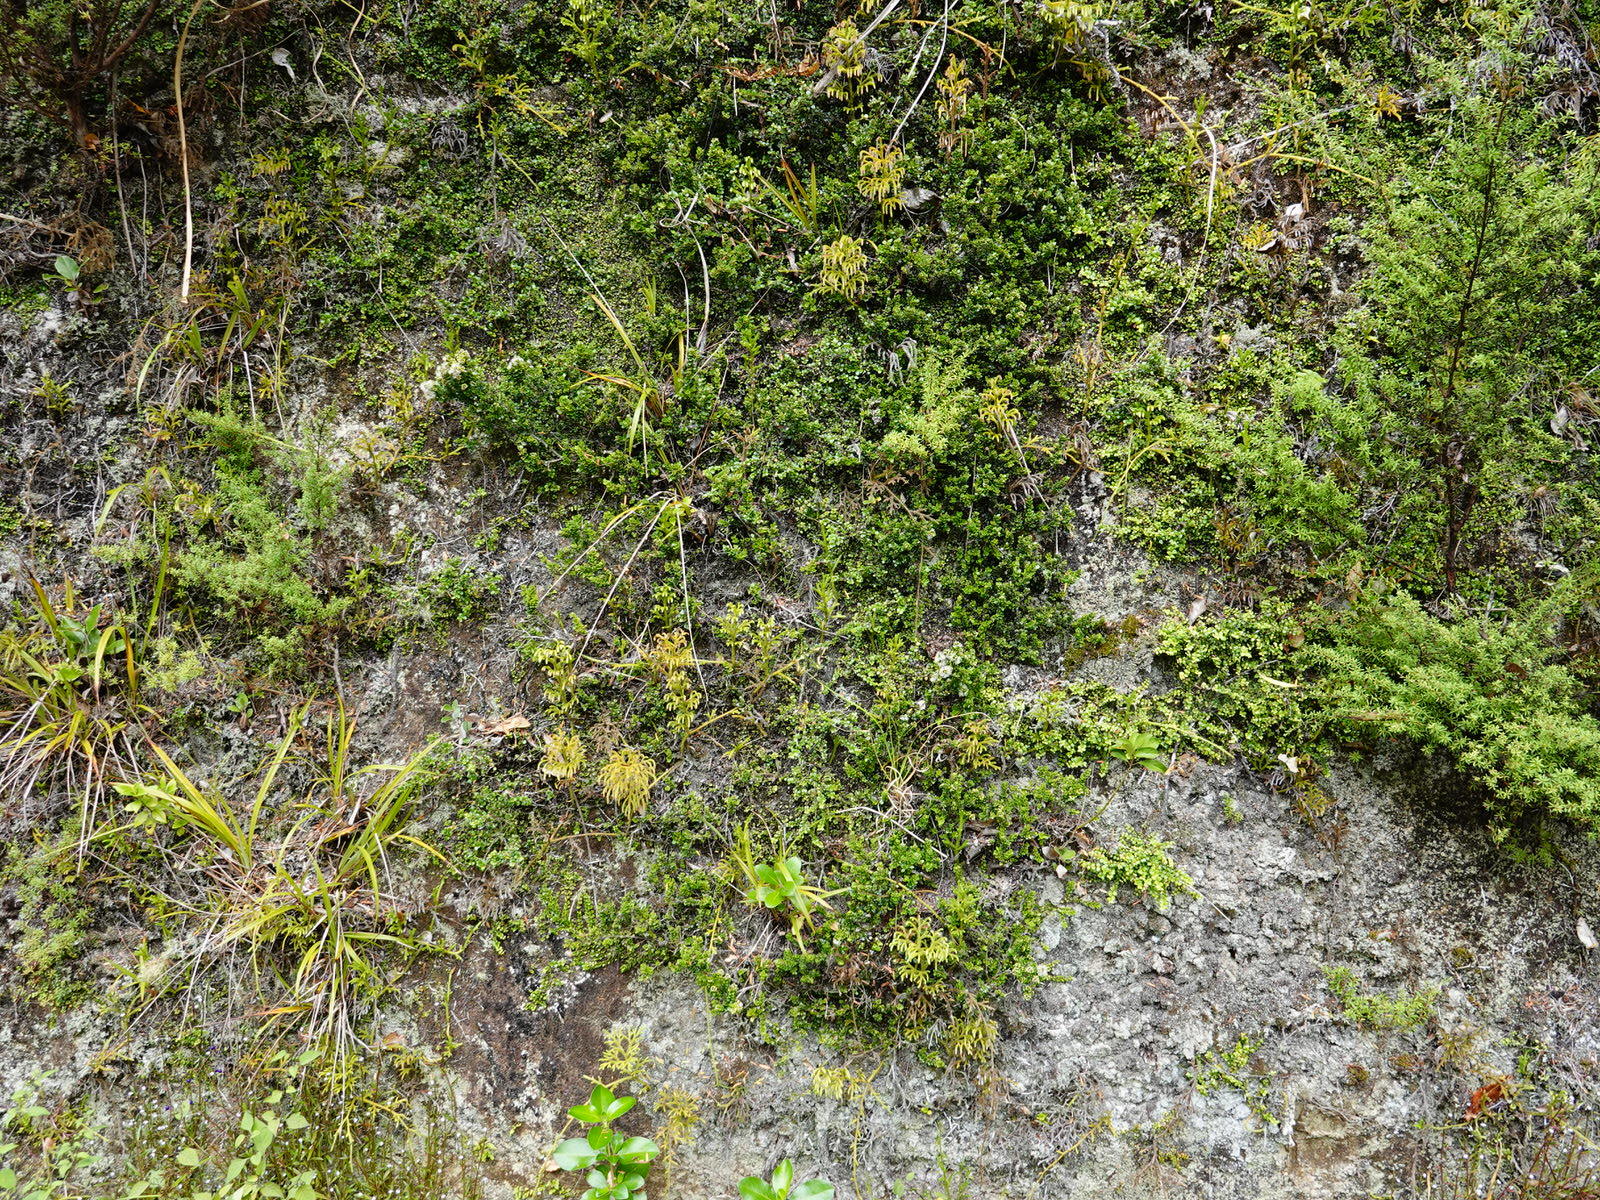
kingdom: Plantae
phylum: Tracheophyta
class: Magnoliopsida
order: Myrtales
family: Myrtaceae
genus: Metrosideros
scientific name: Metrosideros perforata
